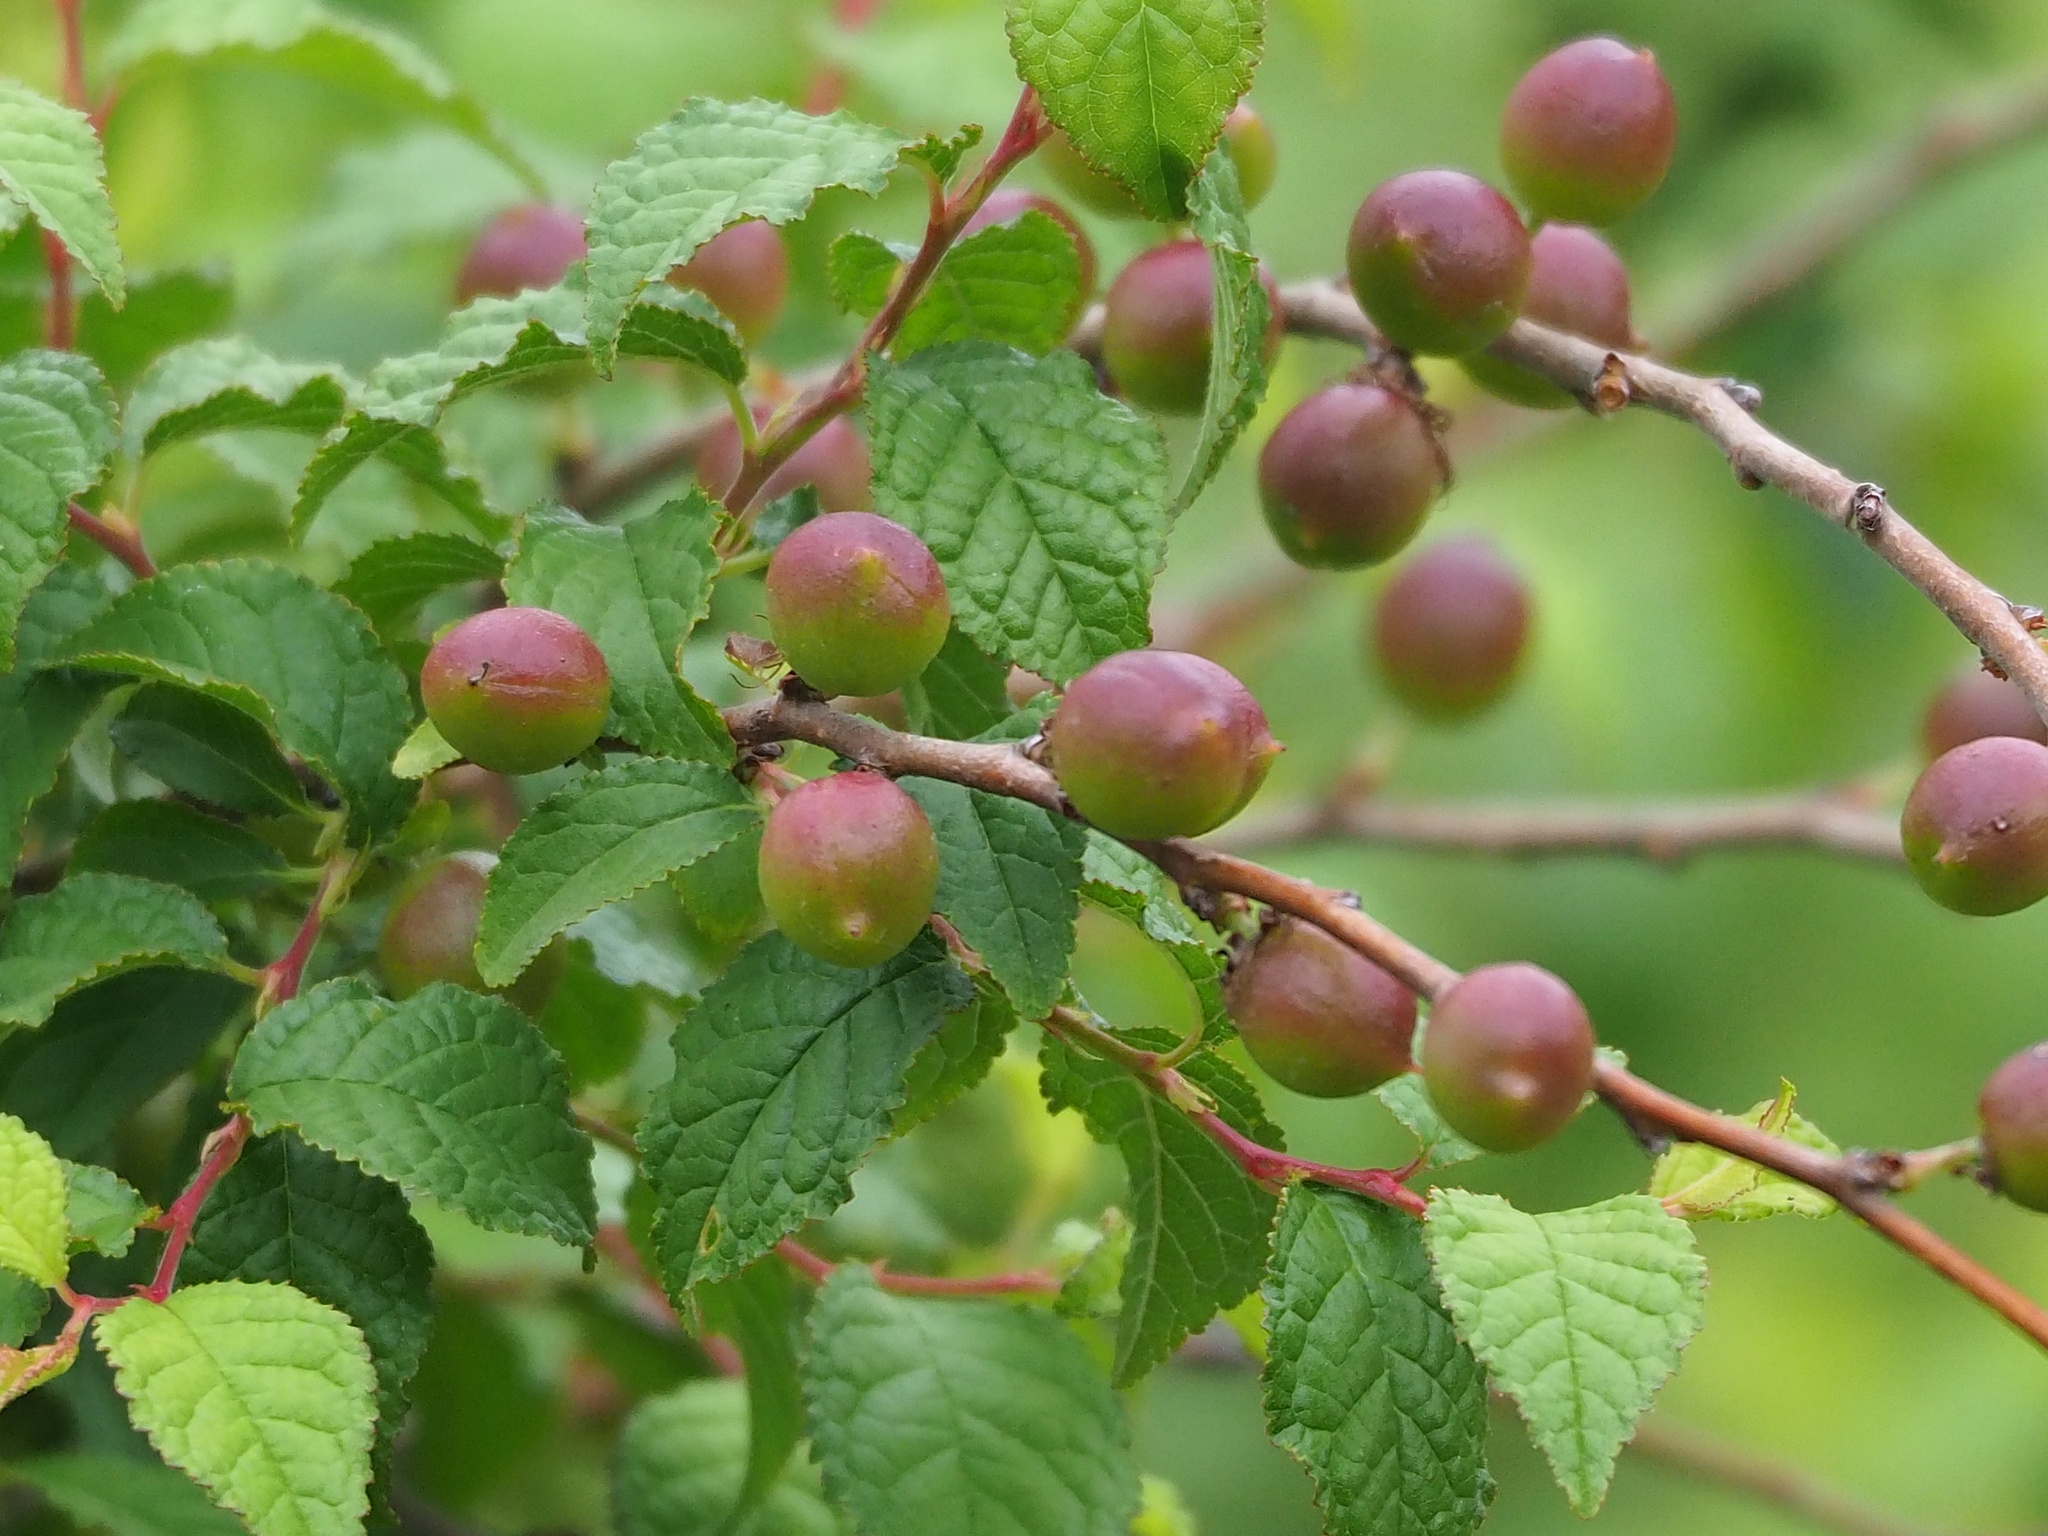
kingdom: Plantae
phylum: Tracheophyta
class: Magnoliopsida
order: Rosales
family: Rosaceae
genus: Prunus
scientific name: Prunus pogonostyla
